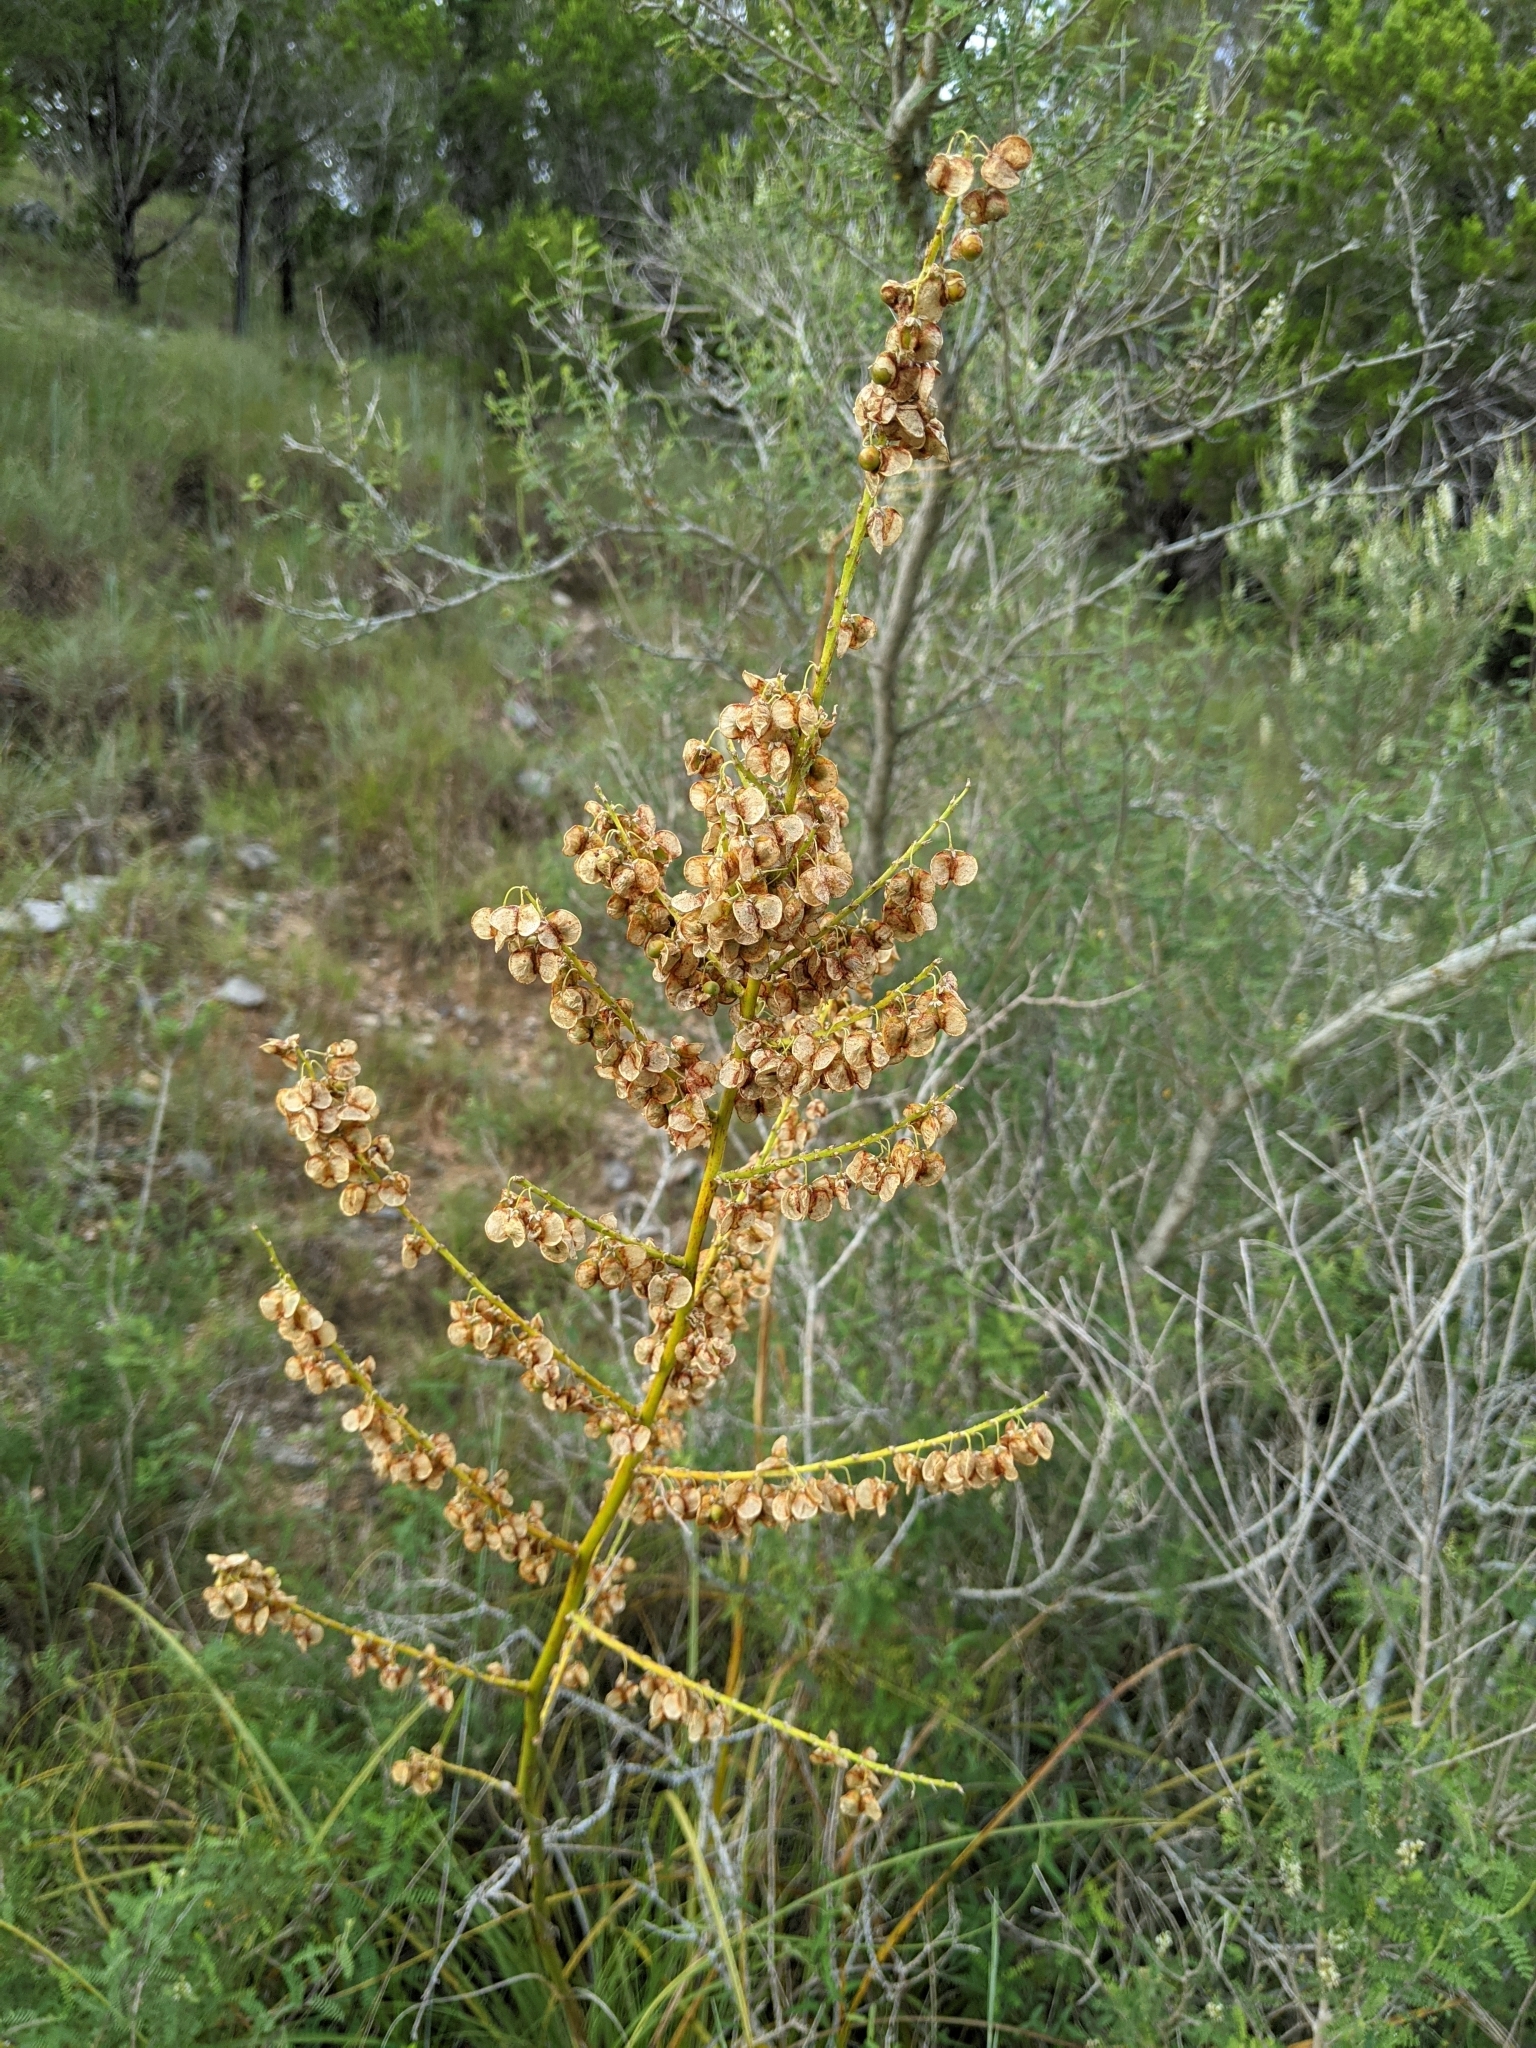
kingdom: Plantae
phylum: Tracheophyta
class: Liliopsida
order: Asparagales
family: Asparagaceae
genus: Nolina
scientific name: Nolina lindheimeriana
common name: Lindheimer's bear-grass
